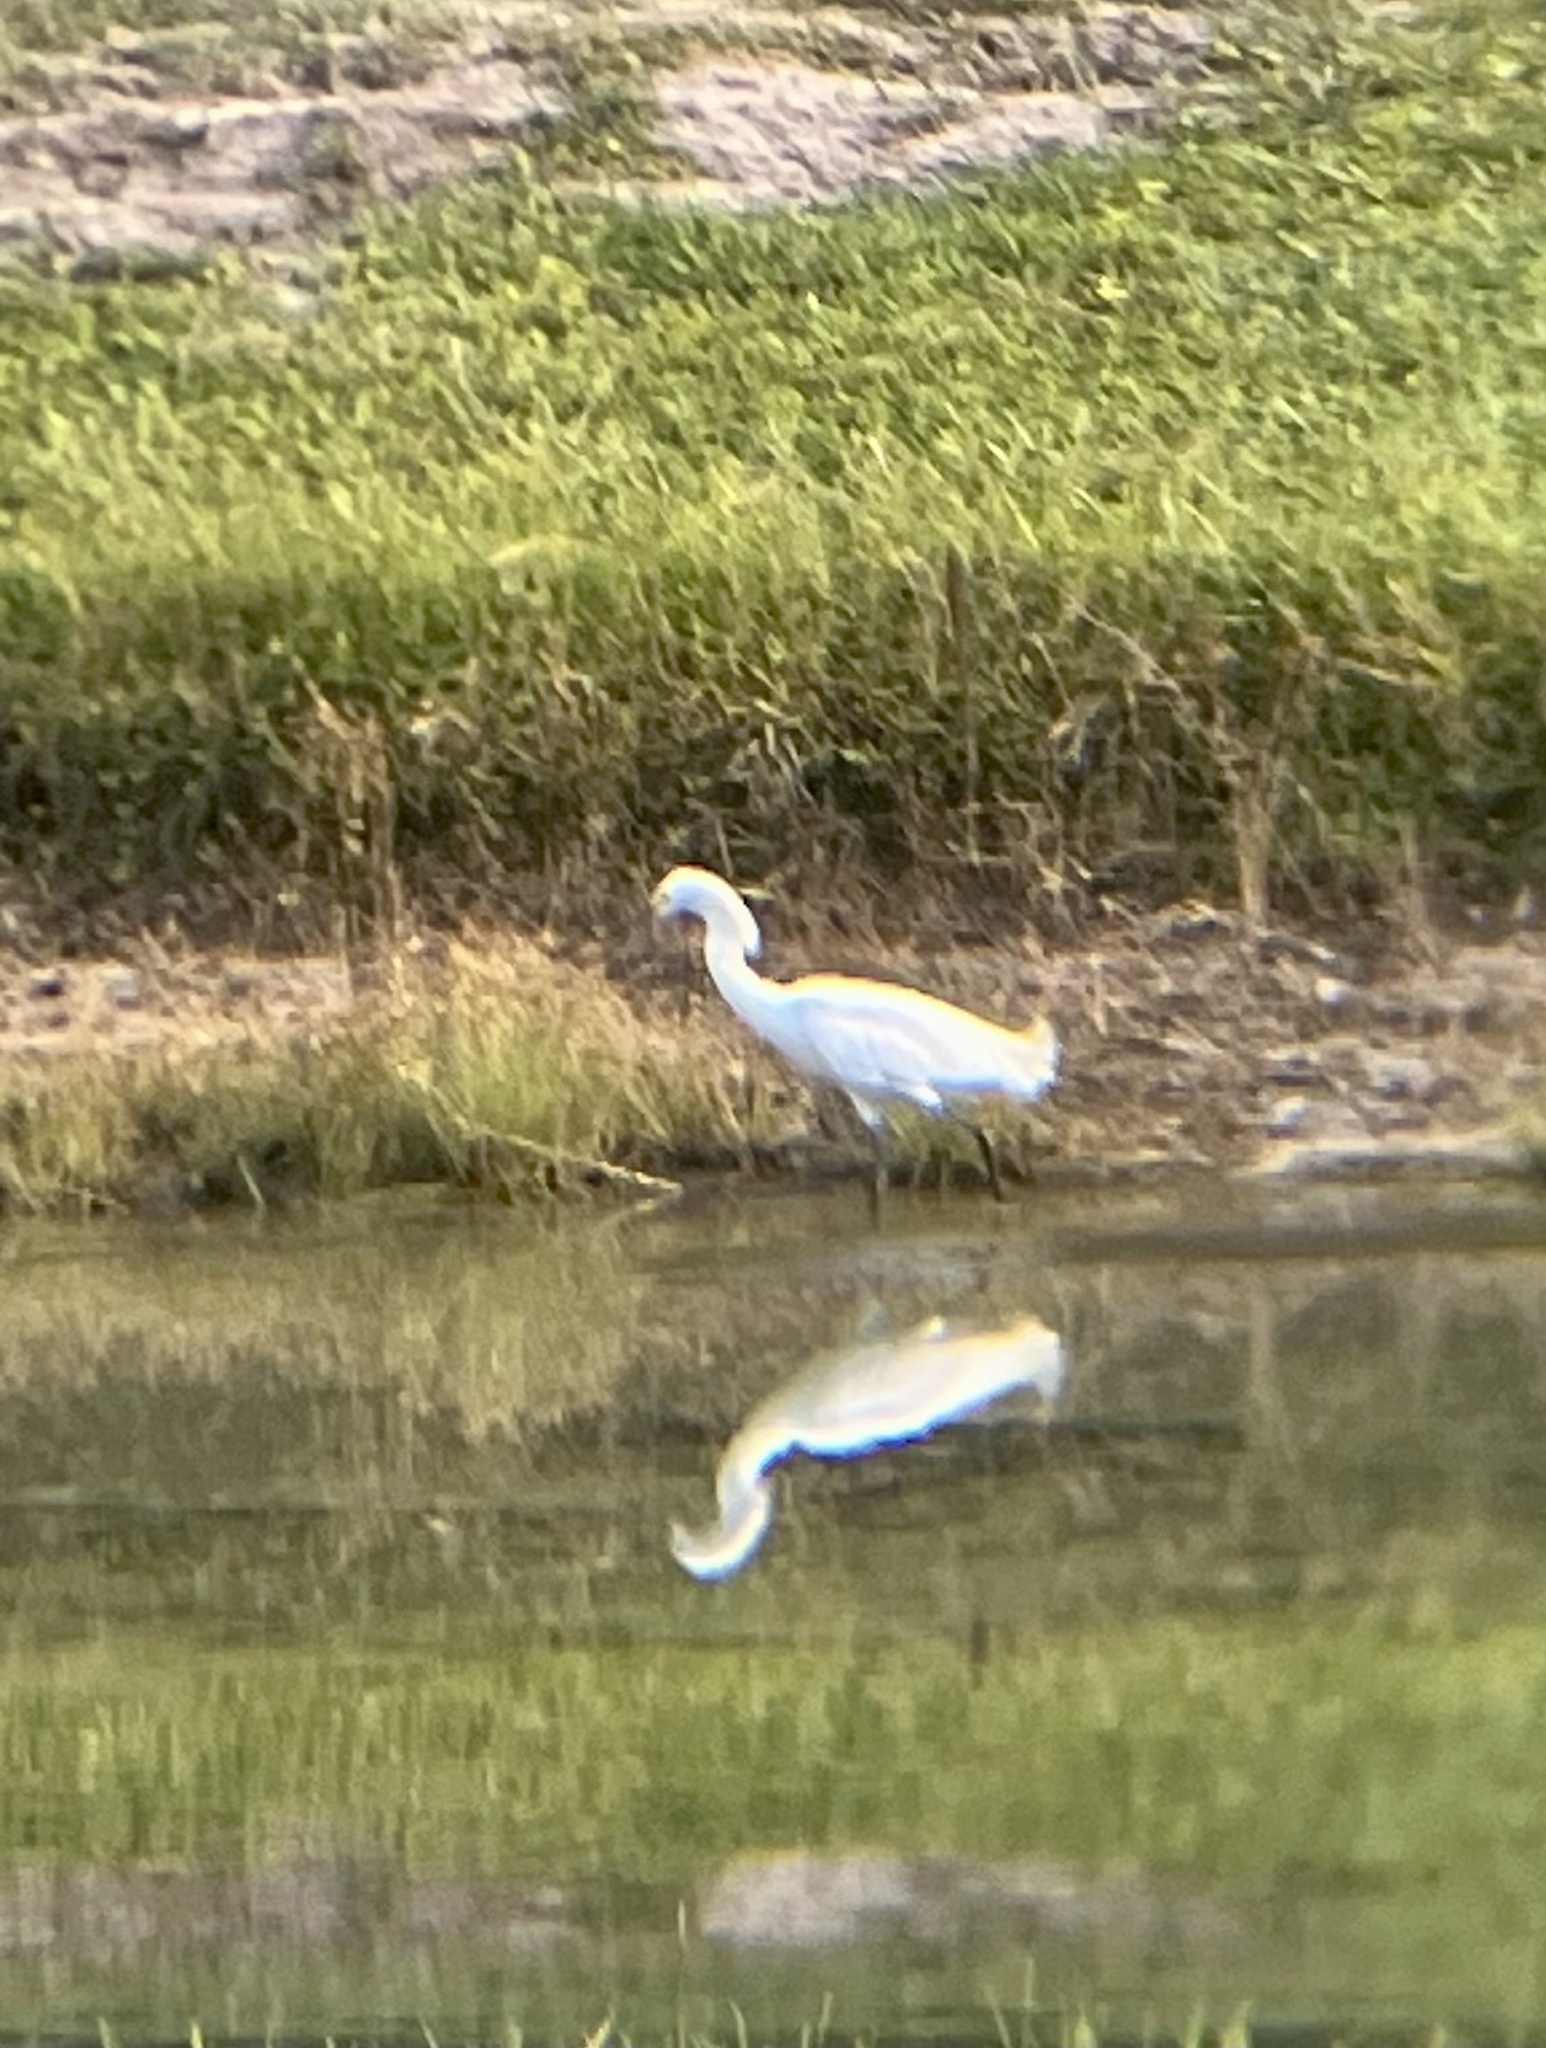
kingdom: Animalia
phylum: Chordata
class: Aves
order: Pelecaniformes
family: Ardeidae
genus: Egretta
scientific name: Egretta thula
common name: Snowy egret
